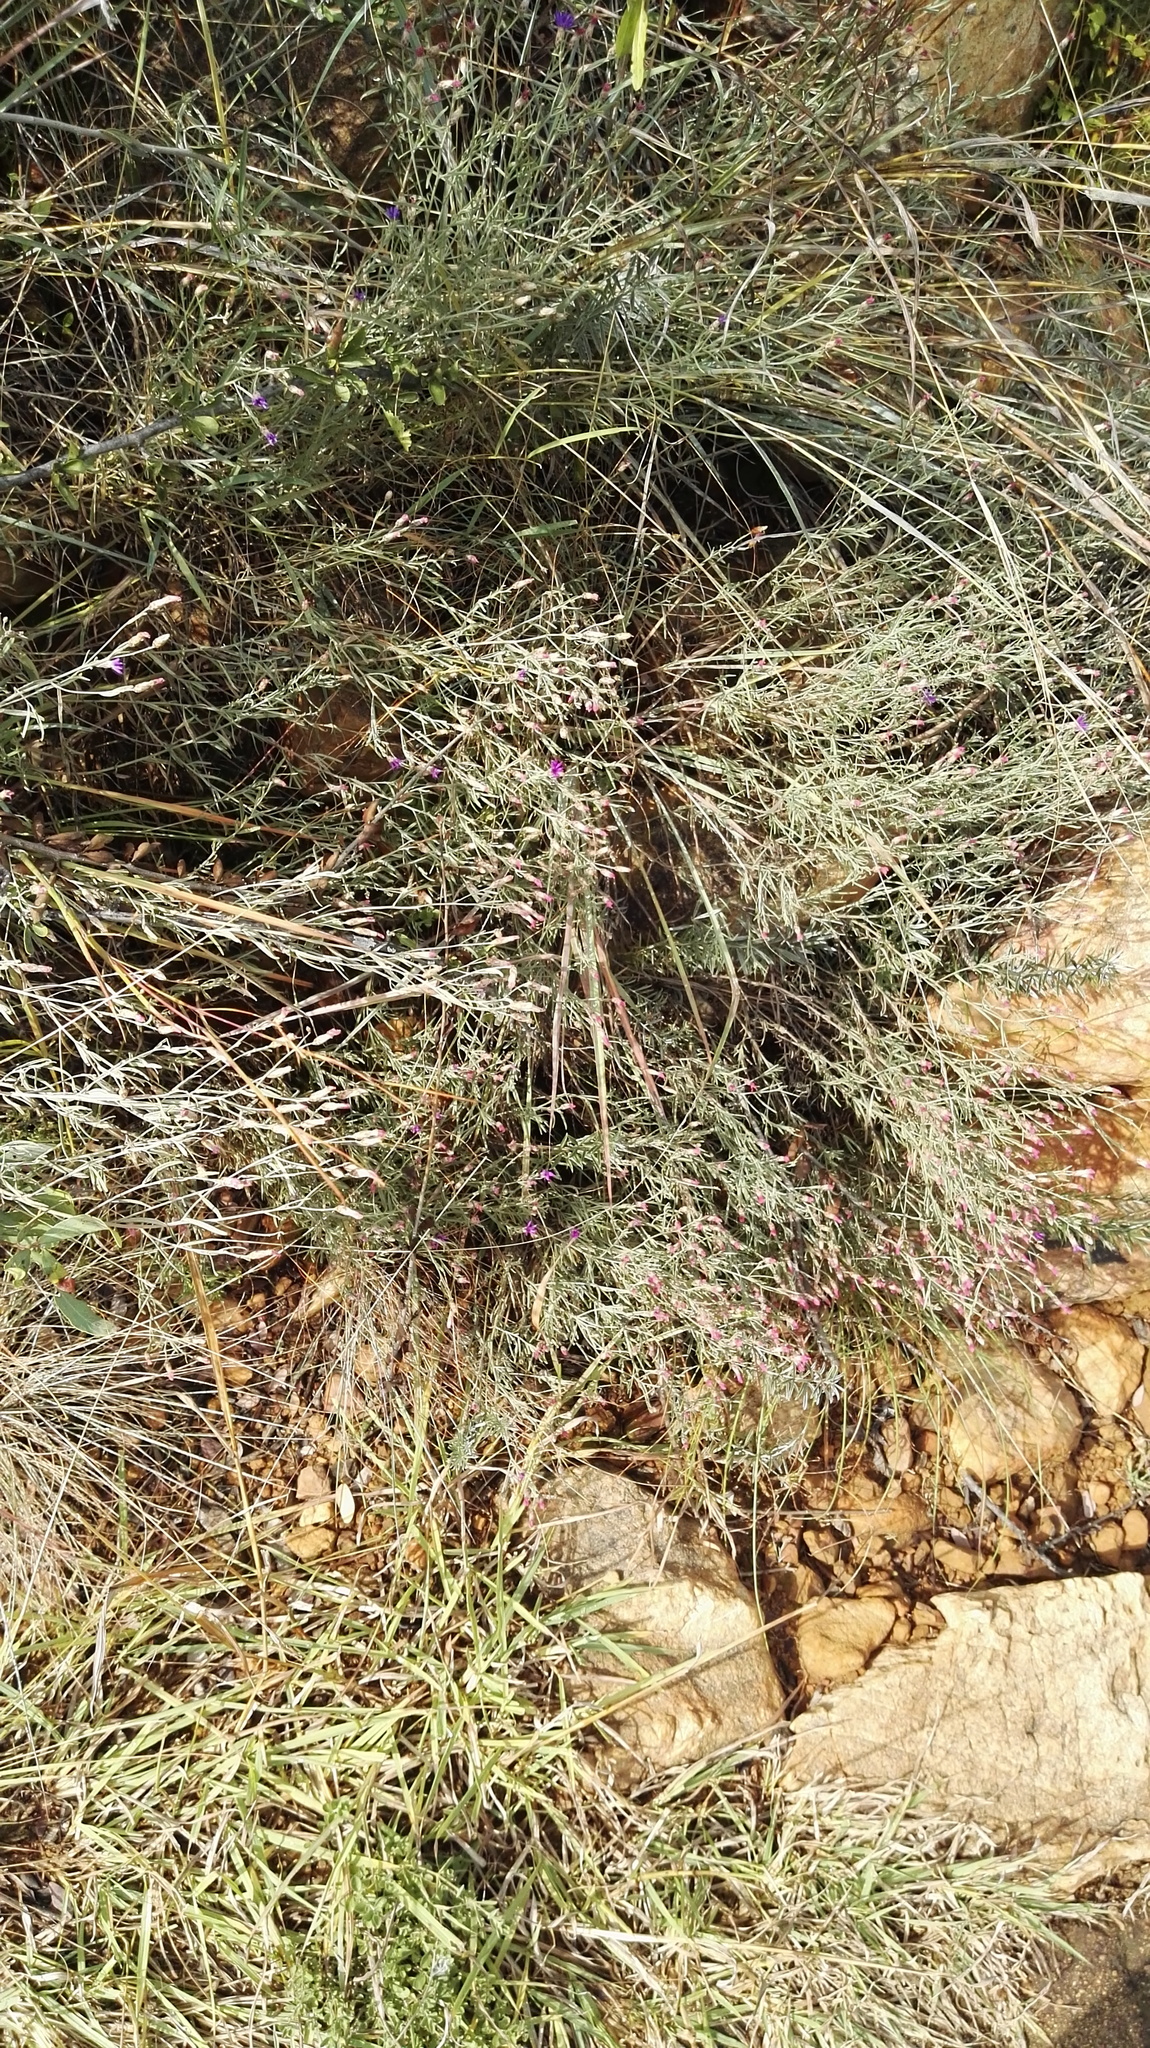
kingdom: Plantae
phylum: Tracheophyta
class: Magnoliopsida
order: Fabales
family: Fabaceae
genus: Mundulea
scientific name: Mundulea sericea
